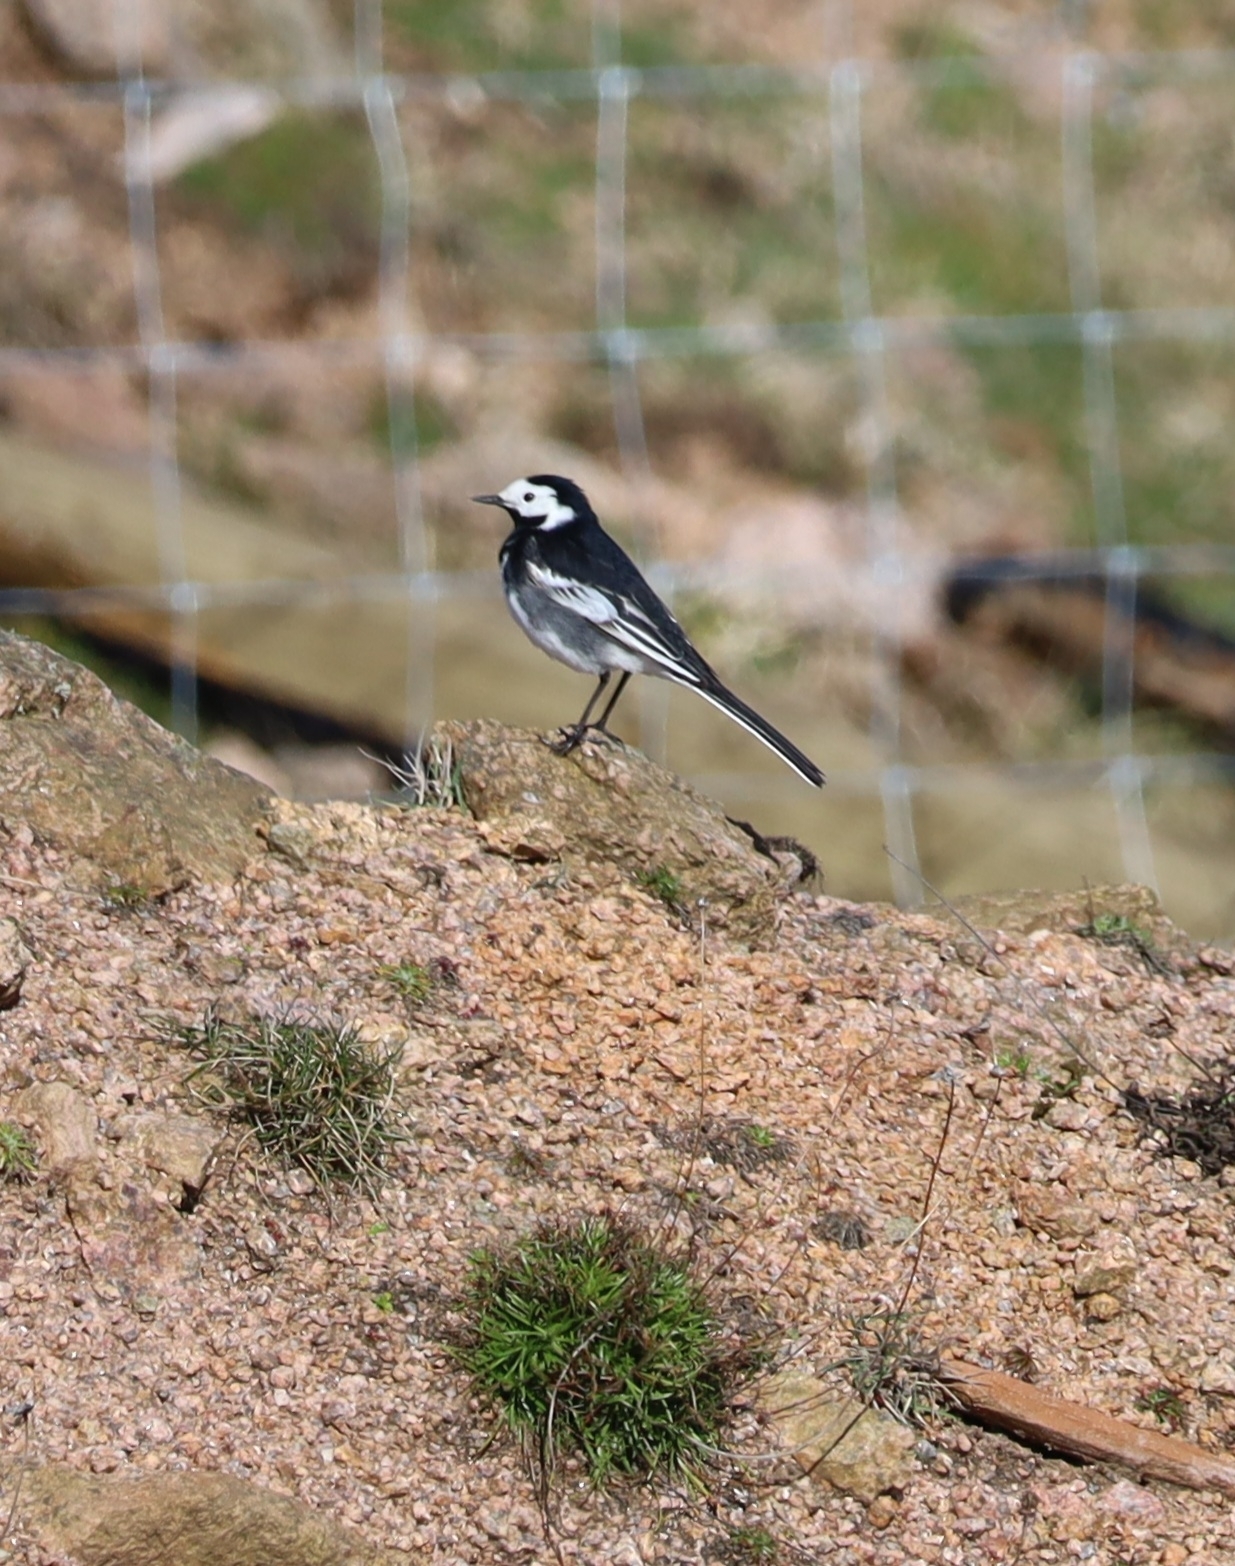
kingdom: Animalia
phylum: Chordata
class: Aves
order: Passeriformes
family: Motacillidae
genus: Motacilla
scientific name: Motacilla alba
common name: White wagtail
